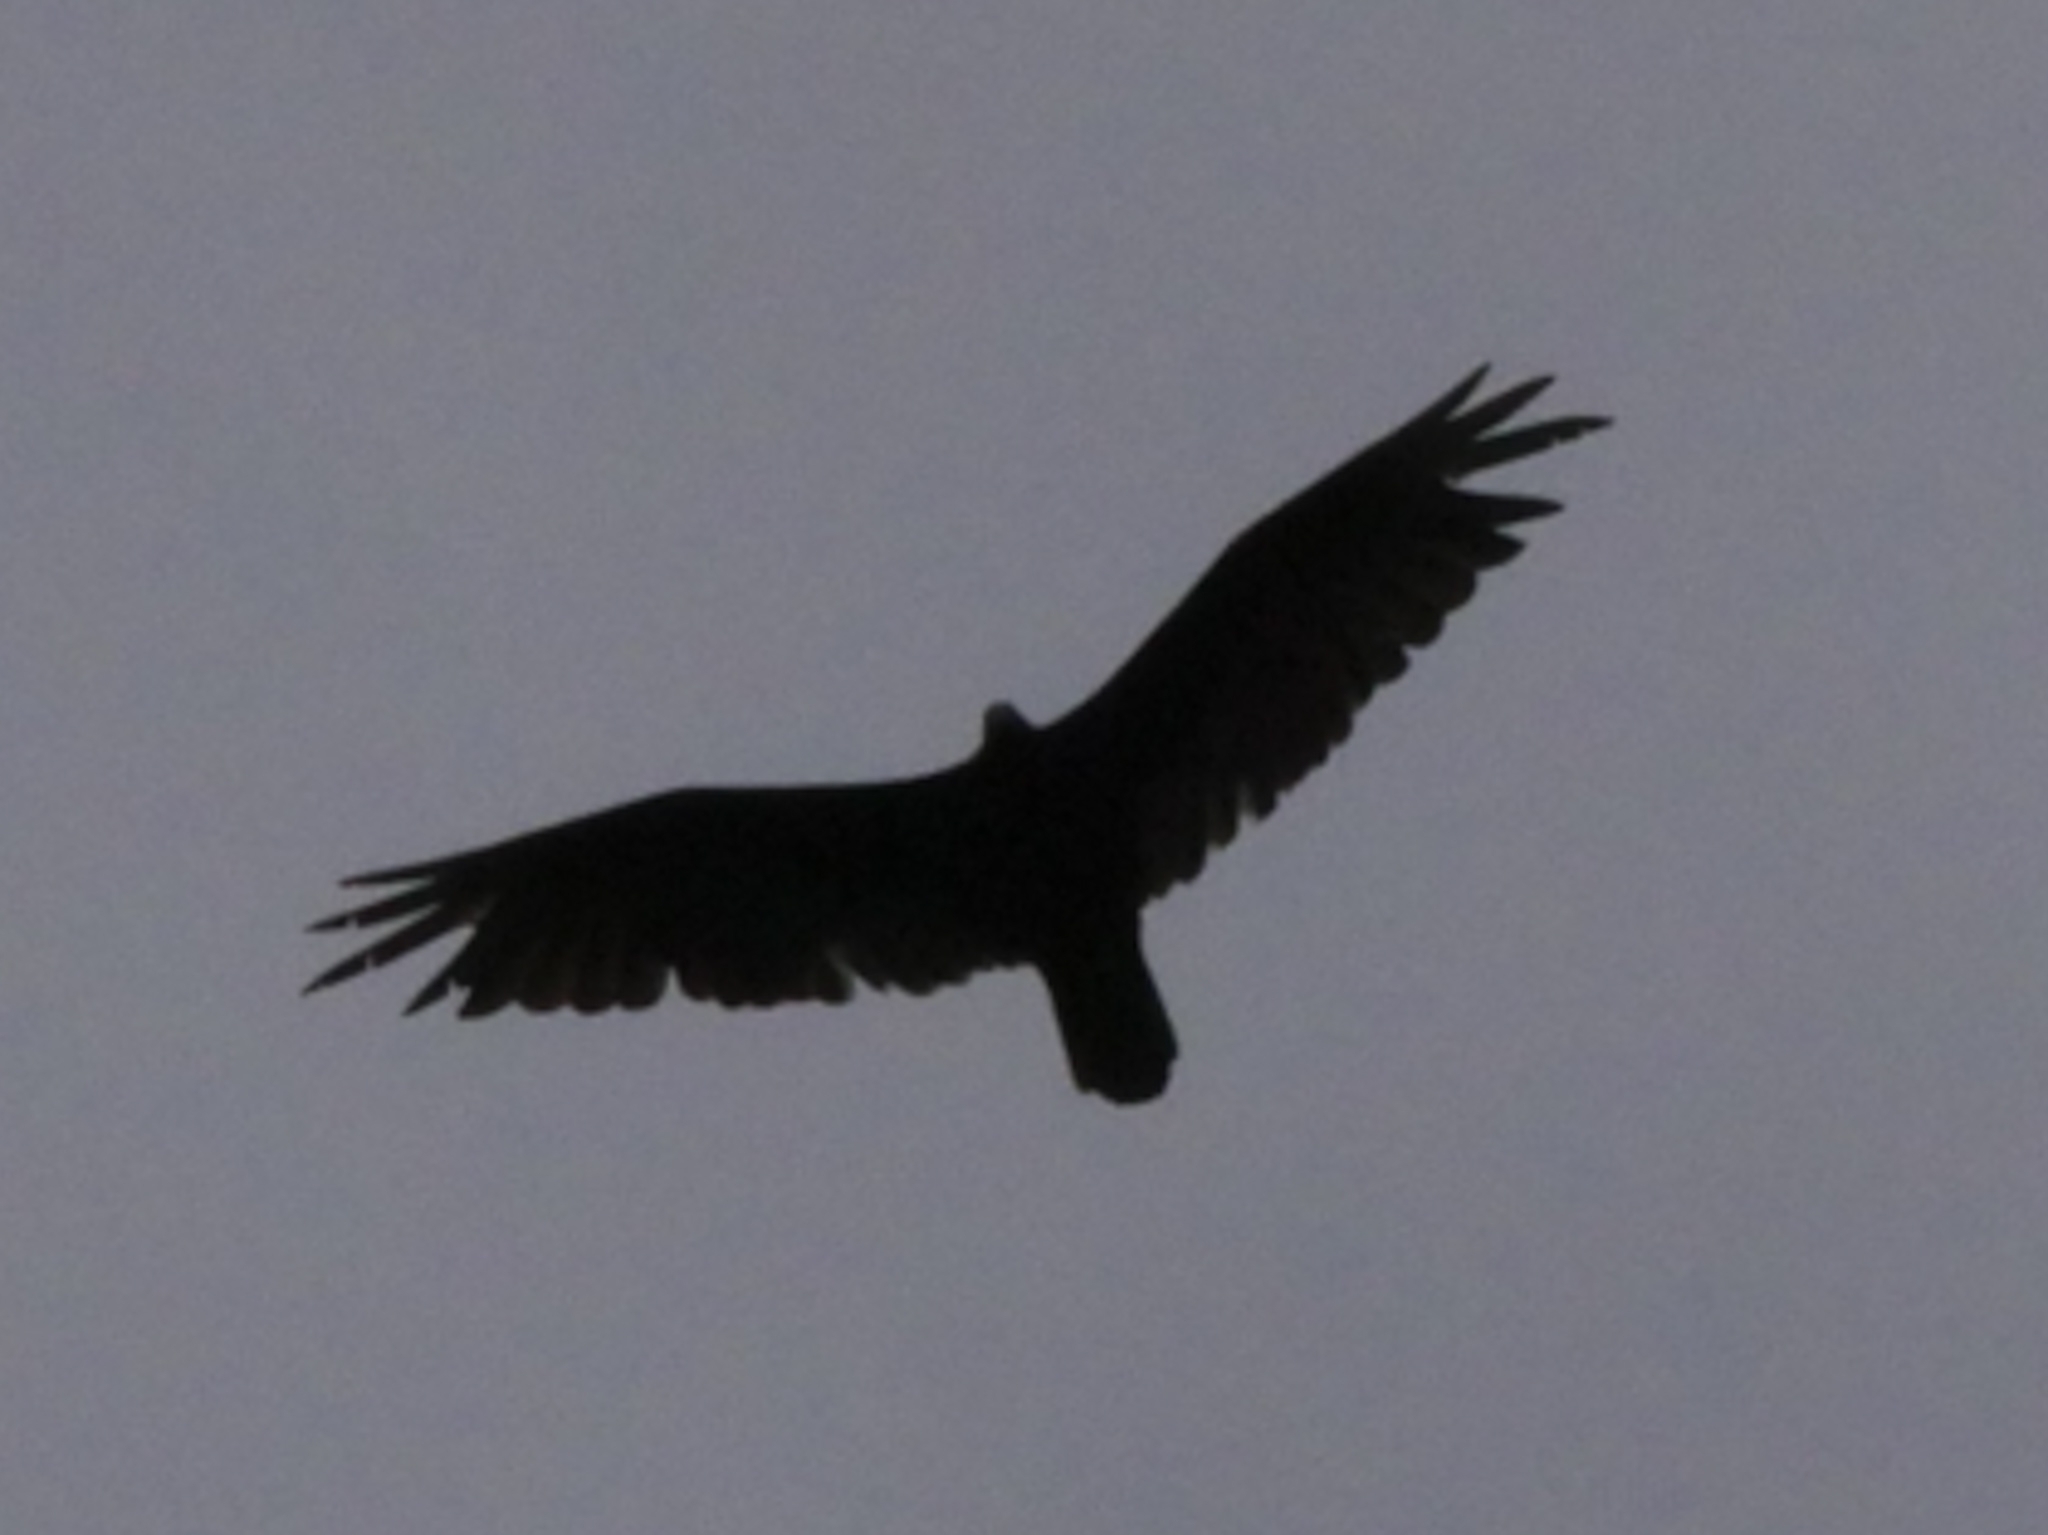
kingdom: Animalia
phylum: Chordata
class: Aves
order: Accipitriformes
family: Cathartidae
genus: Cathartes
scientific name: Cathartes aura
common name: Turkey vulture
